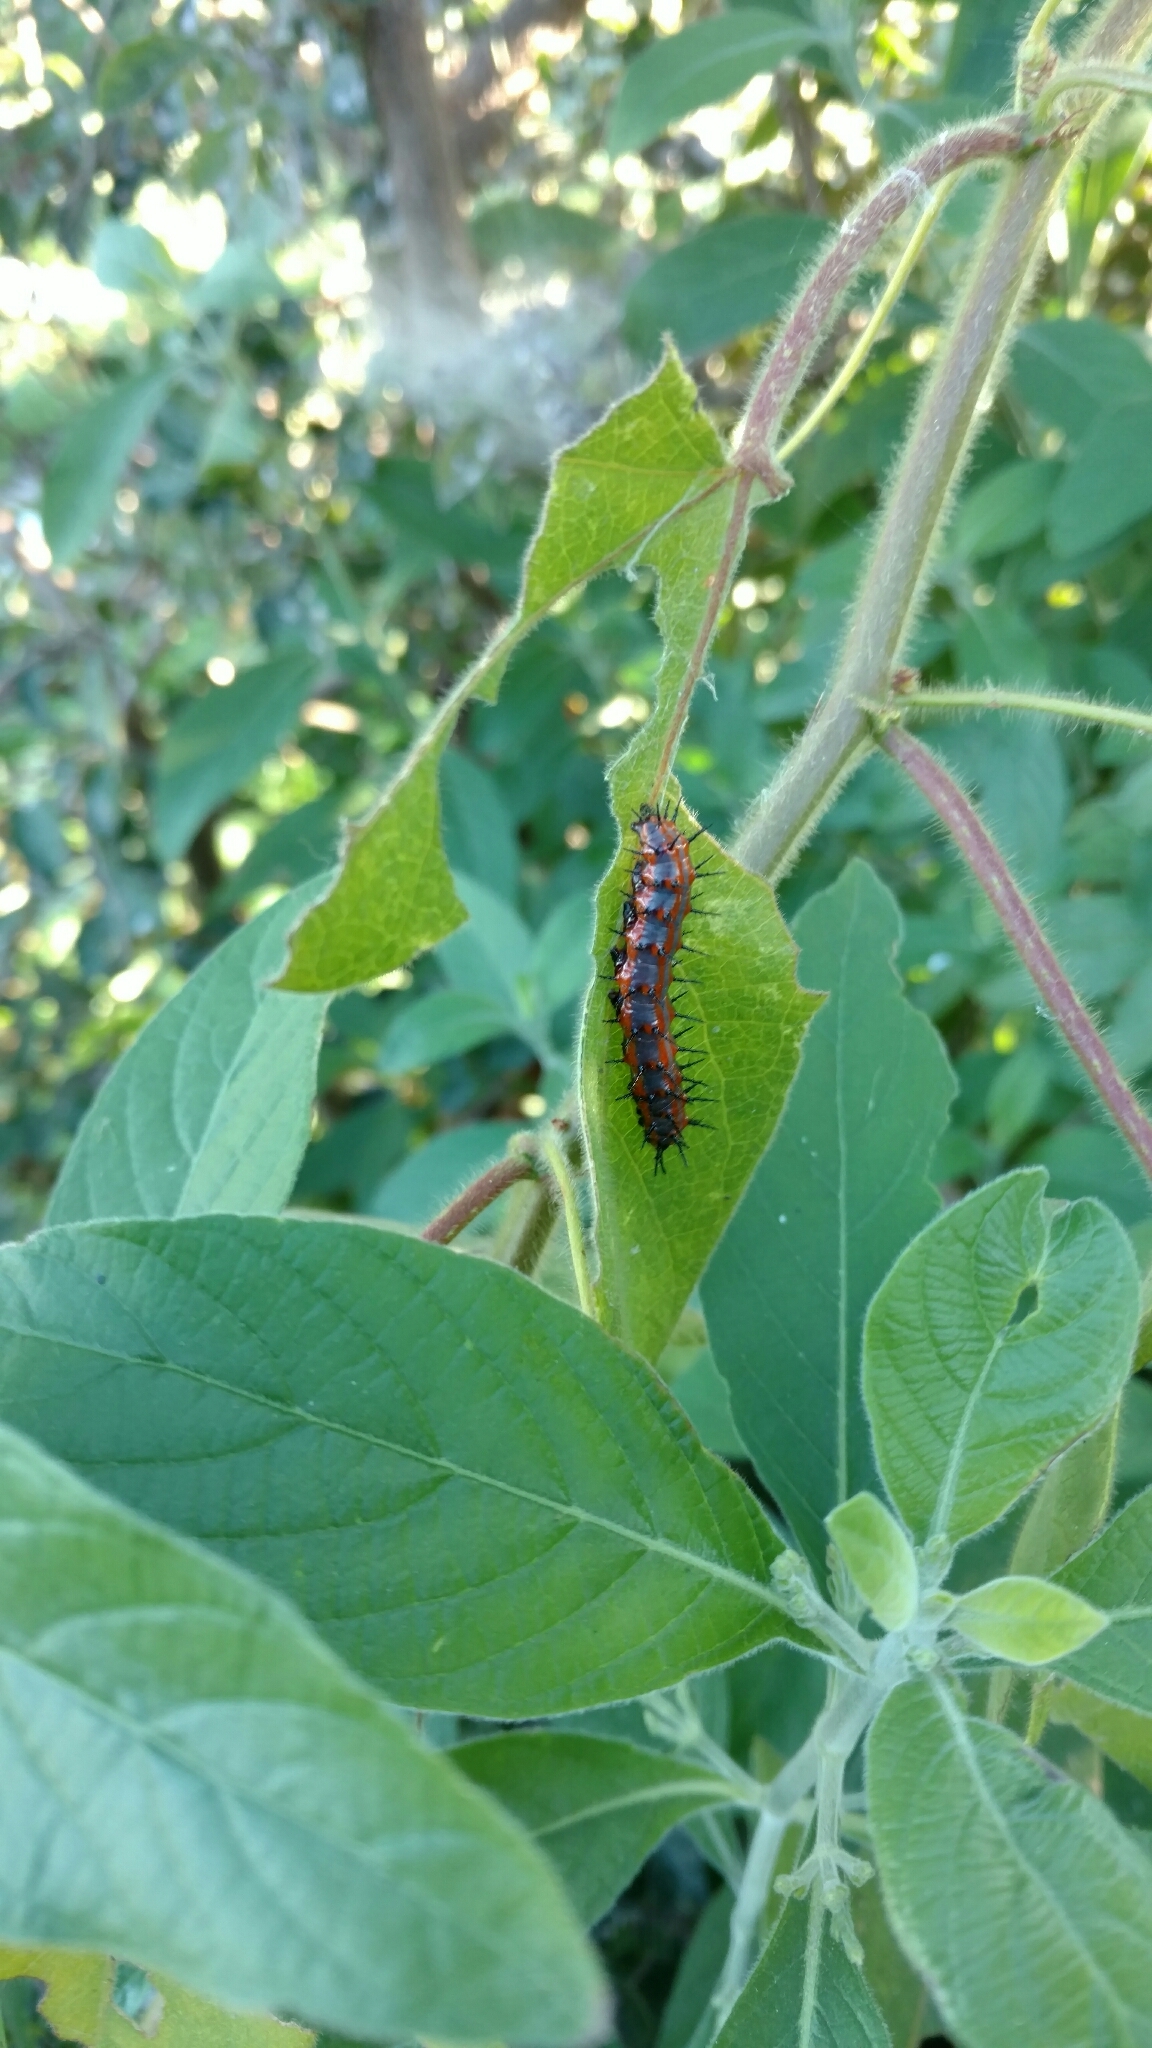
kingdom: Animalia
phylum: Arthropoda
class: Insecta
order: Lepidoptera
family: Nymphalidae
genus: Dione
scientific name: Dione vanillae
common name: Gulf fritillary
